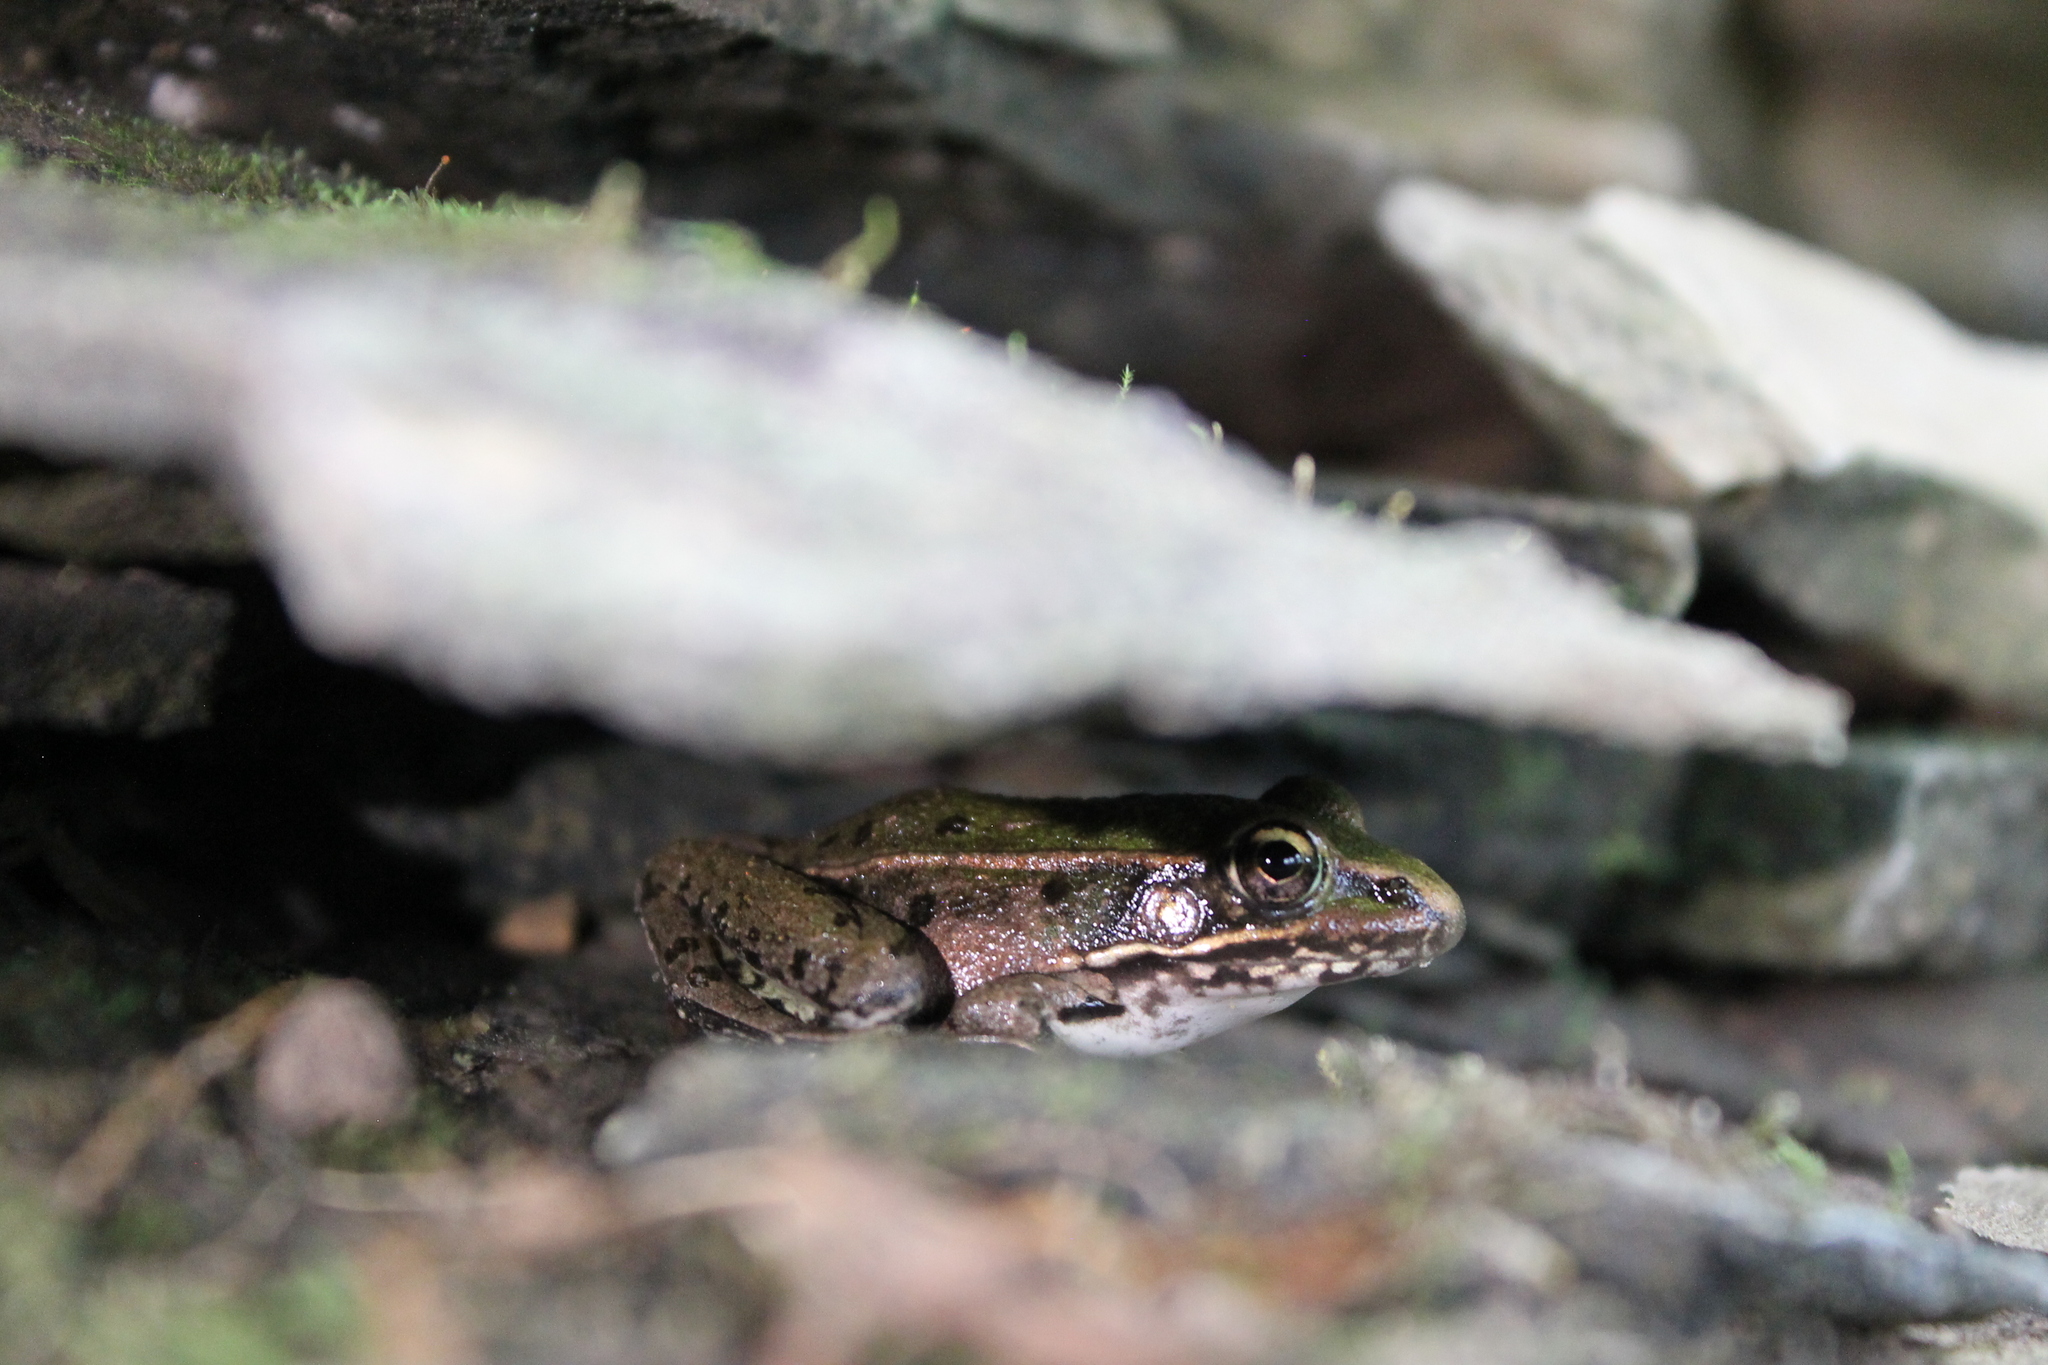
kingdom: Animalia
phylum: Chordata
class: Amphibia
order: Anura
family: Ranidae
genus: Lithobates
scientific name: Lithobates sphenocephalus
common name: Southern leopard frog
